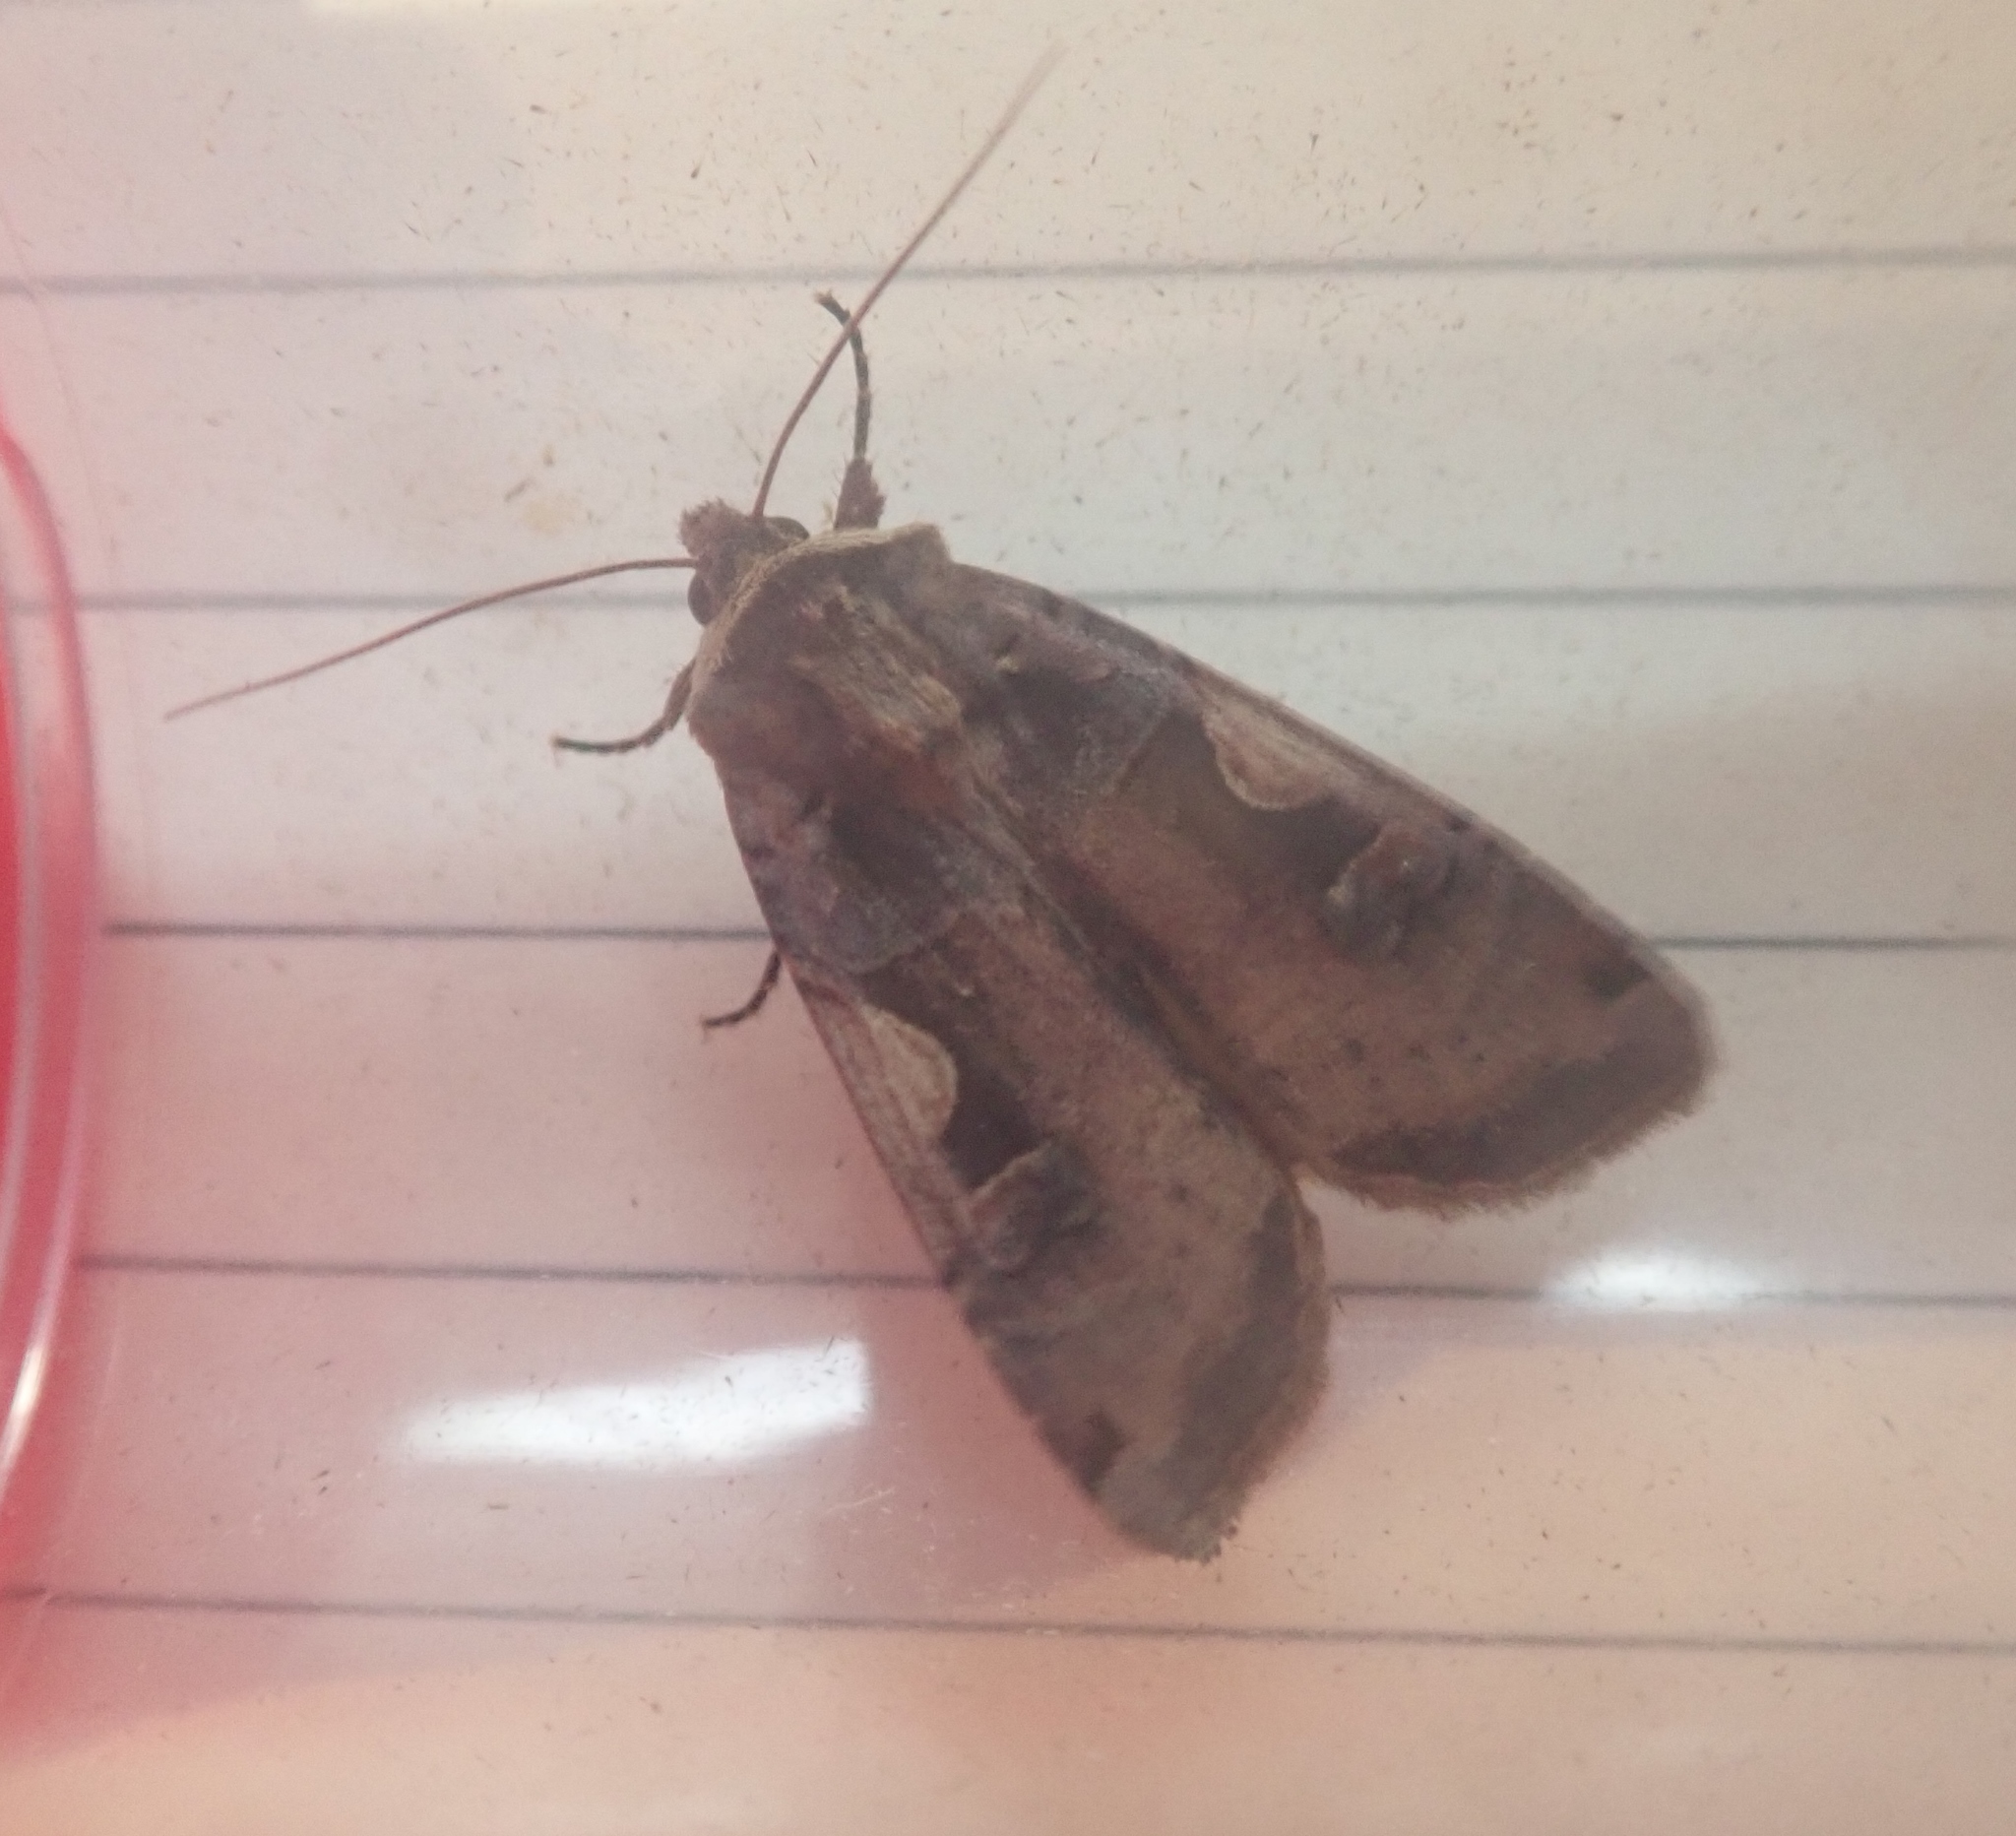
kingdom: Animalia
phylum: Arthropoda
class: Insecta
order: Lepidoptera
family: Noctuidae
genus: Xestia
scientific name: Xestia c-nigrum
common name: Setaceous hebrew character
